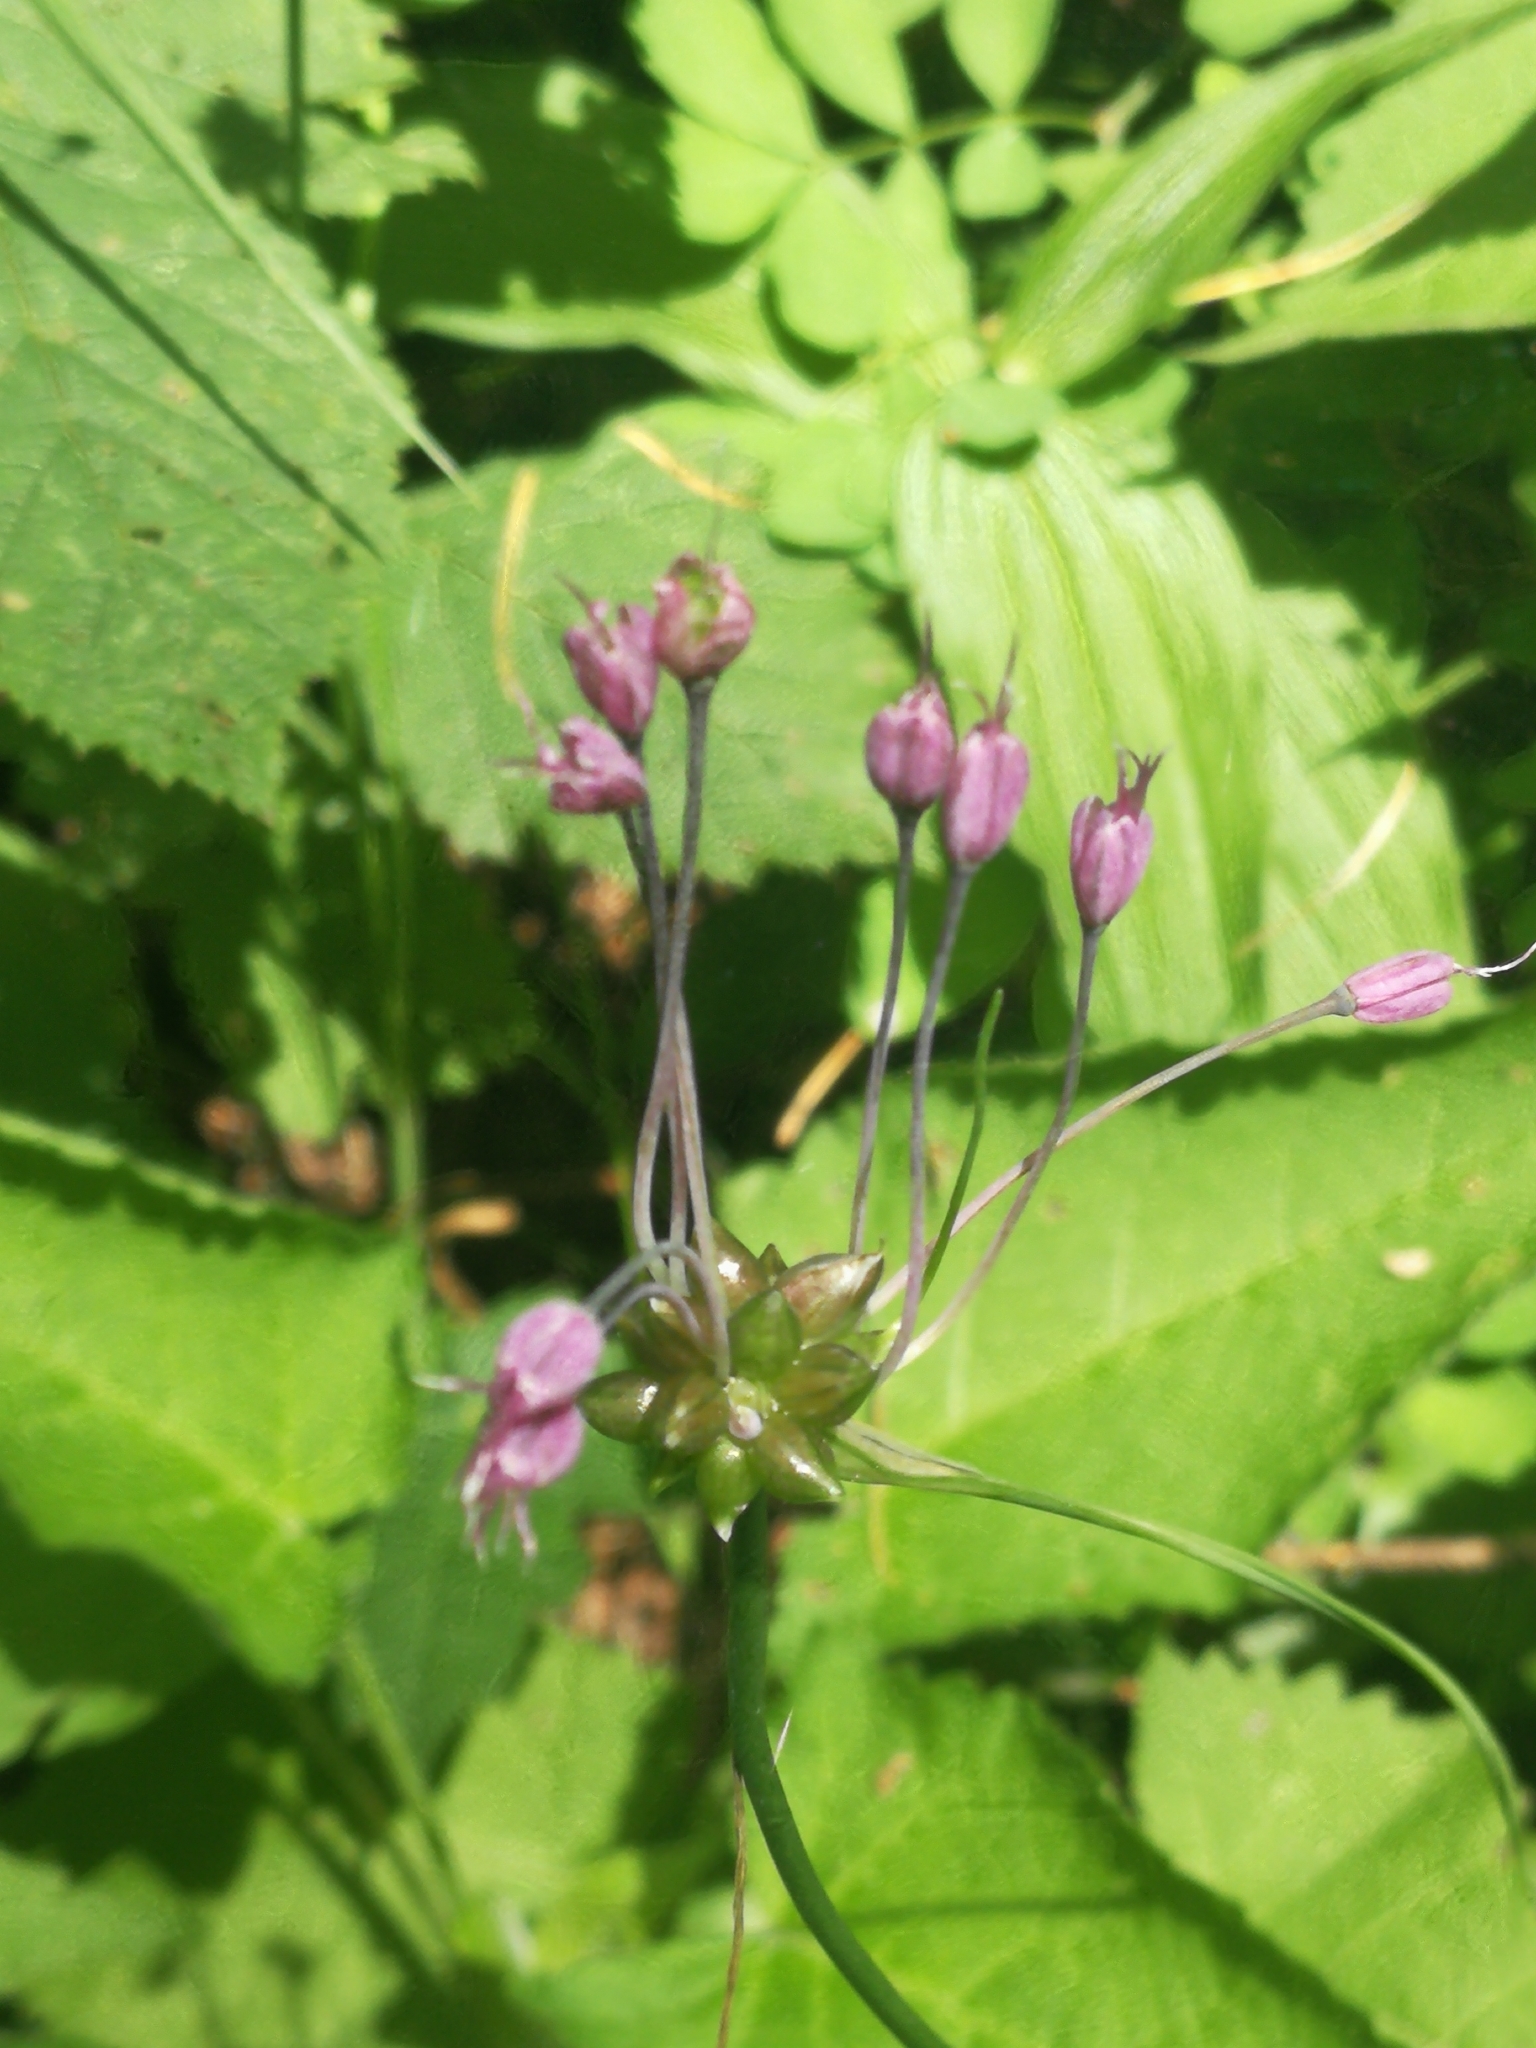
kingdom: Plantae
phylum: Tracheophyta
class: Liliopsida
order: Asparagales
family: Amaryllidaceae
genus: Allium
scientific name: Allium carinatum
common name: Keeled garlic
